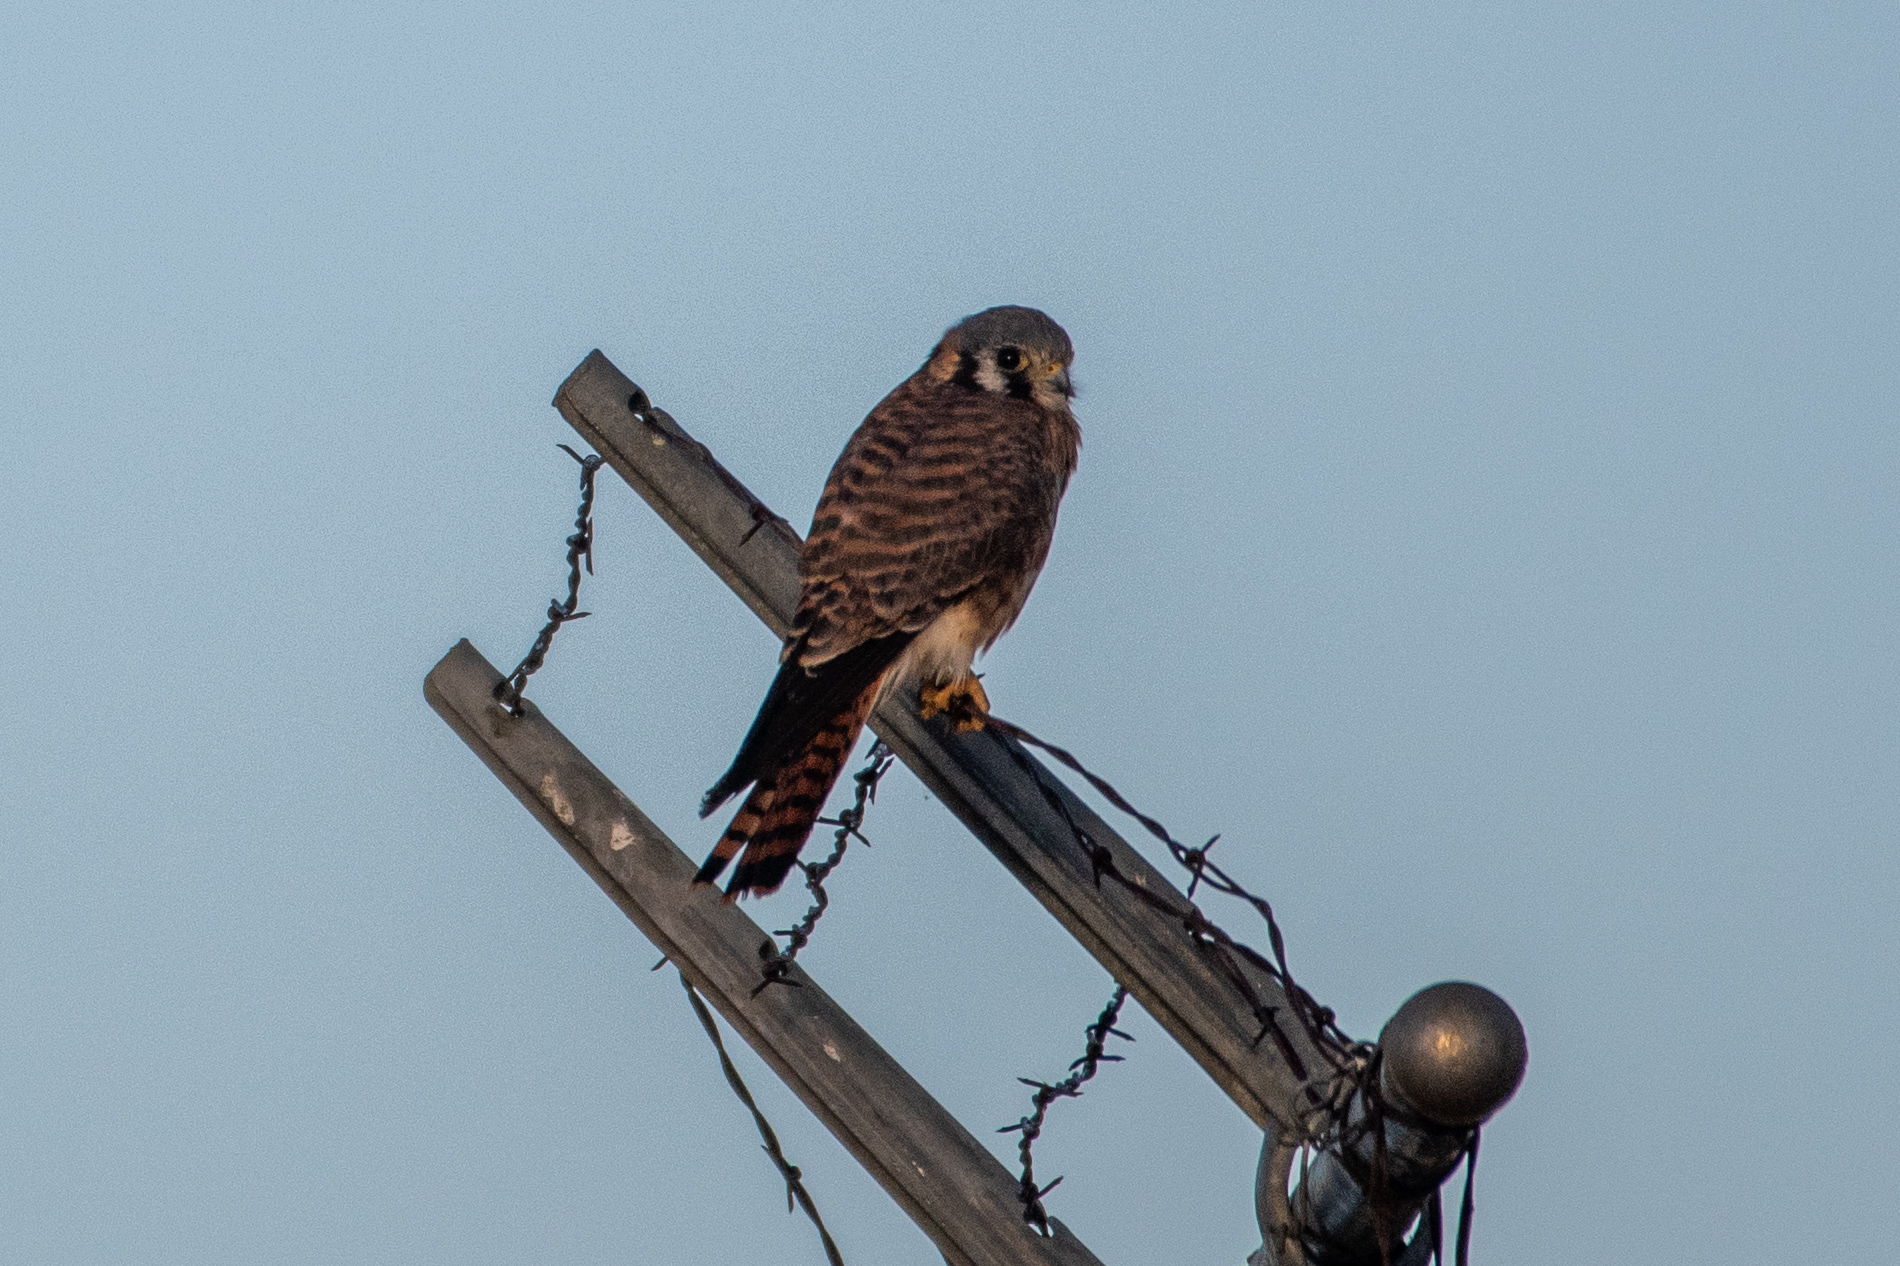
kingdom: Animalia
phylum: Chordata
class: Aves
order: Falconiformes
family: Falconidae
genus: Falco
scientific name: Falco sparverius
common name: American kestrel
